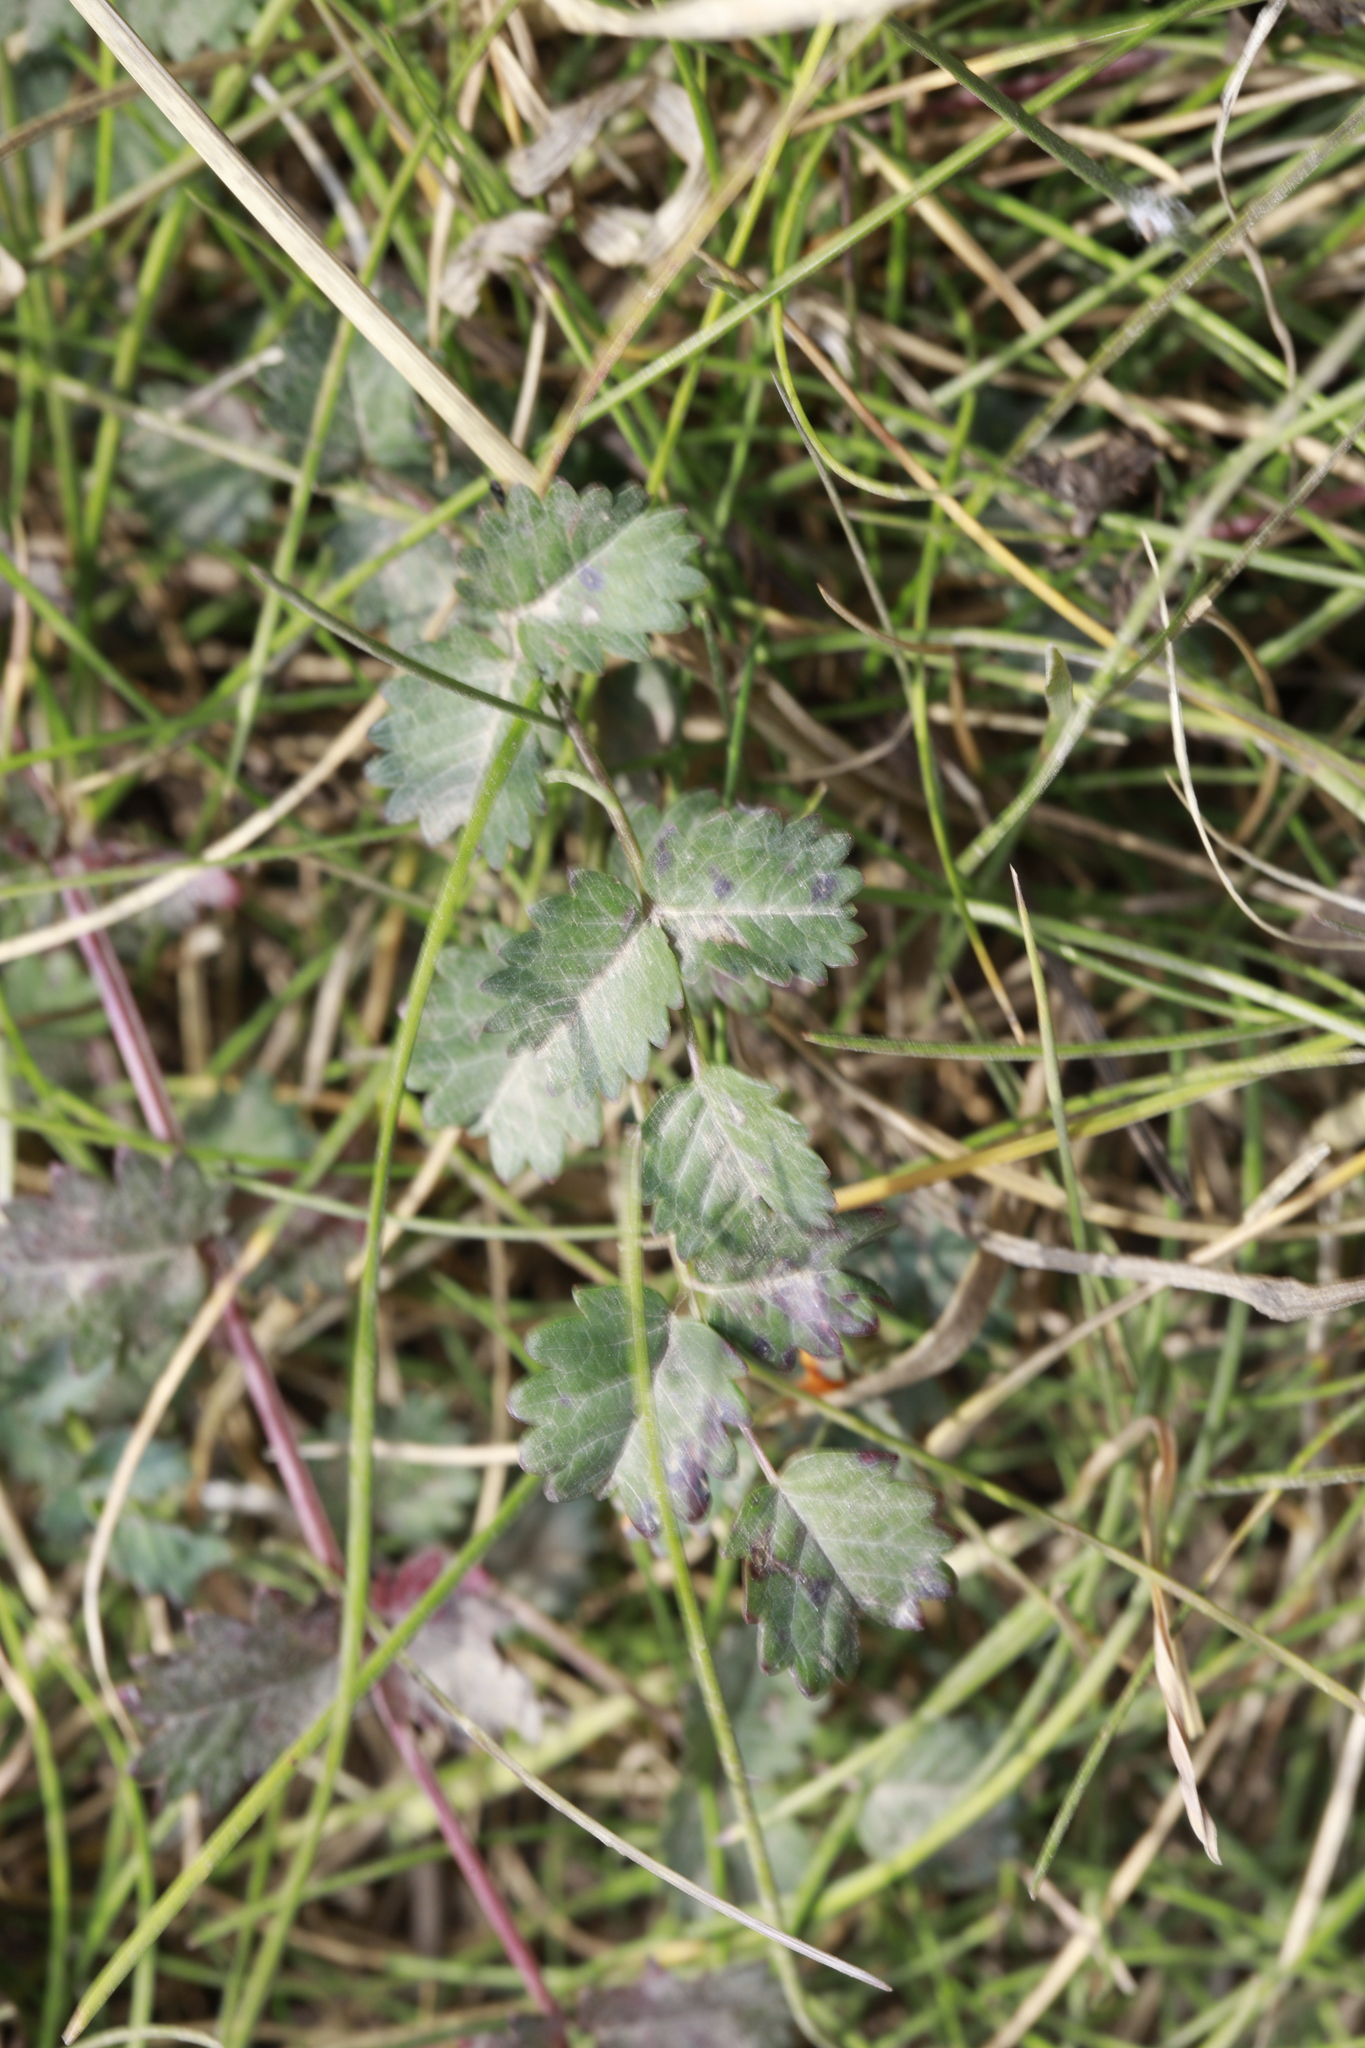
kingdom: Fungi
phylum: Ascomycota
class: Leotiomycetes
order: Helotiales
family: Erysiphaceae
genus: Podosphaera
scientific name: Podosphaera ferruginea
